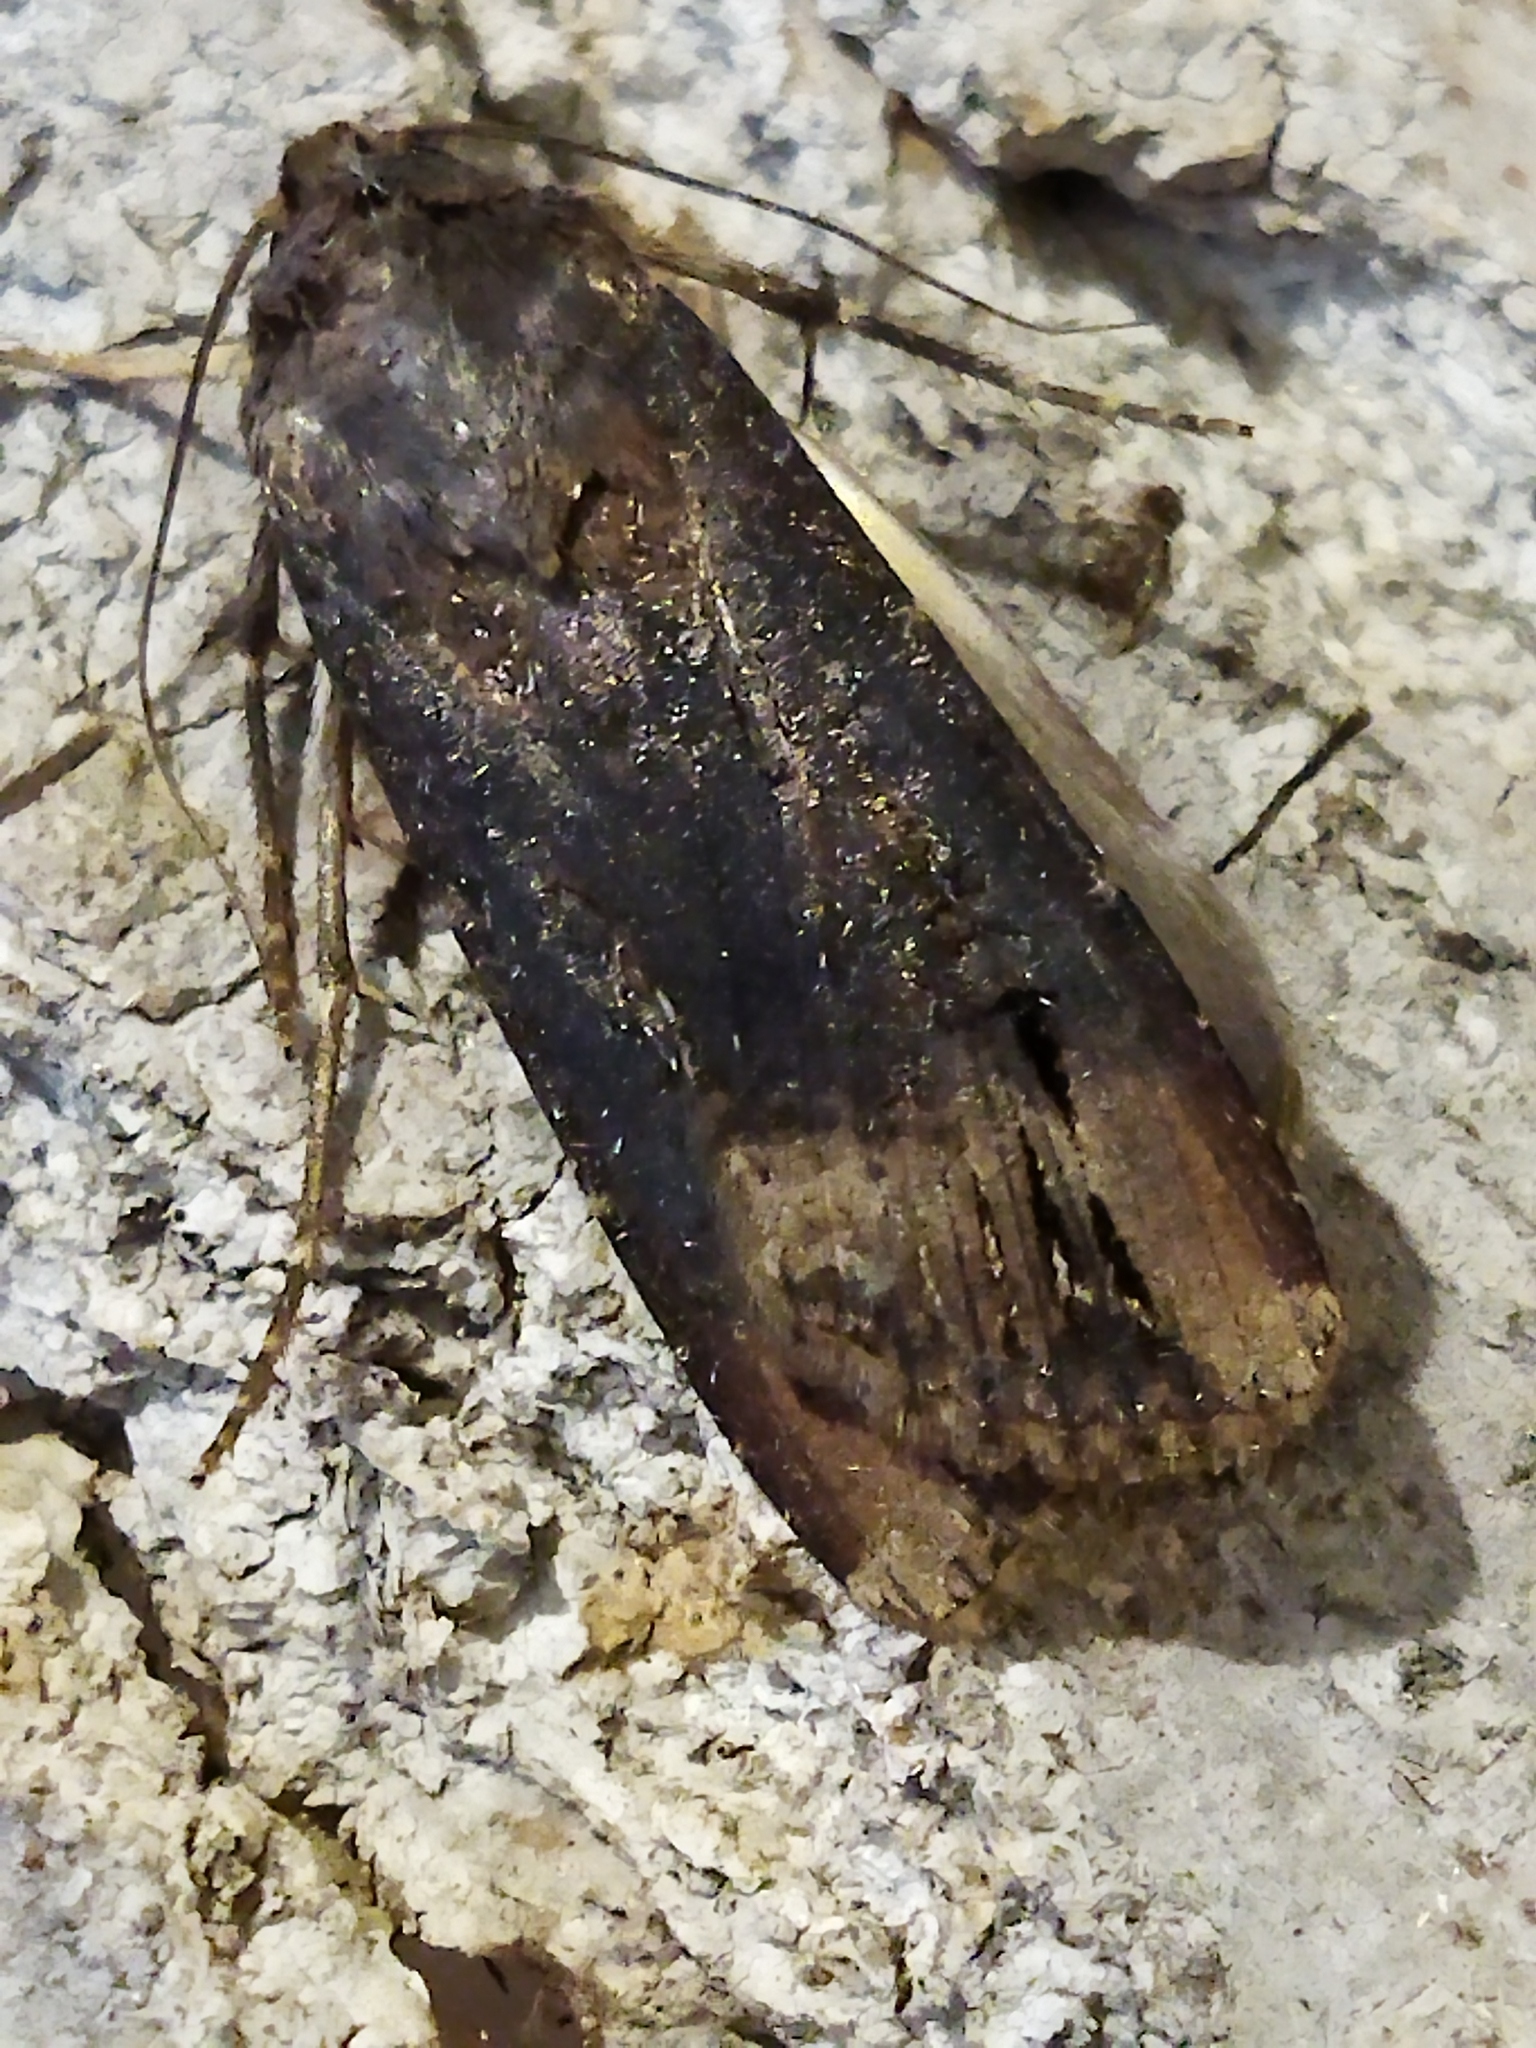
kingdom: Animalia
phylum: Arthropoda
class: Insecta
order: Lepidoptera
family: Noctuidae
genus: Agrotis
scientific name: Agrotis ipsilon
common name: Dark sword-grass
